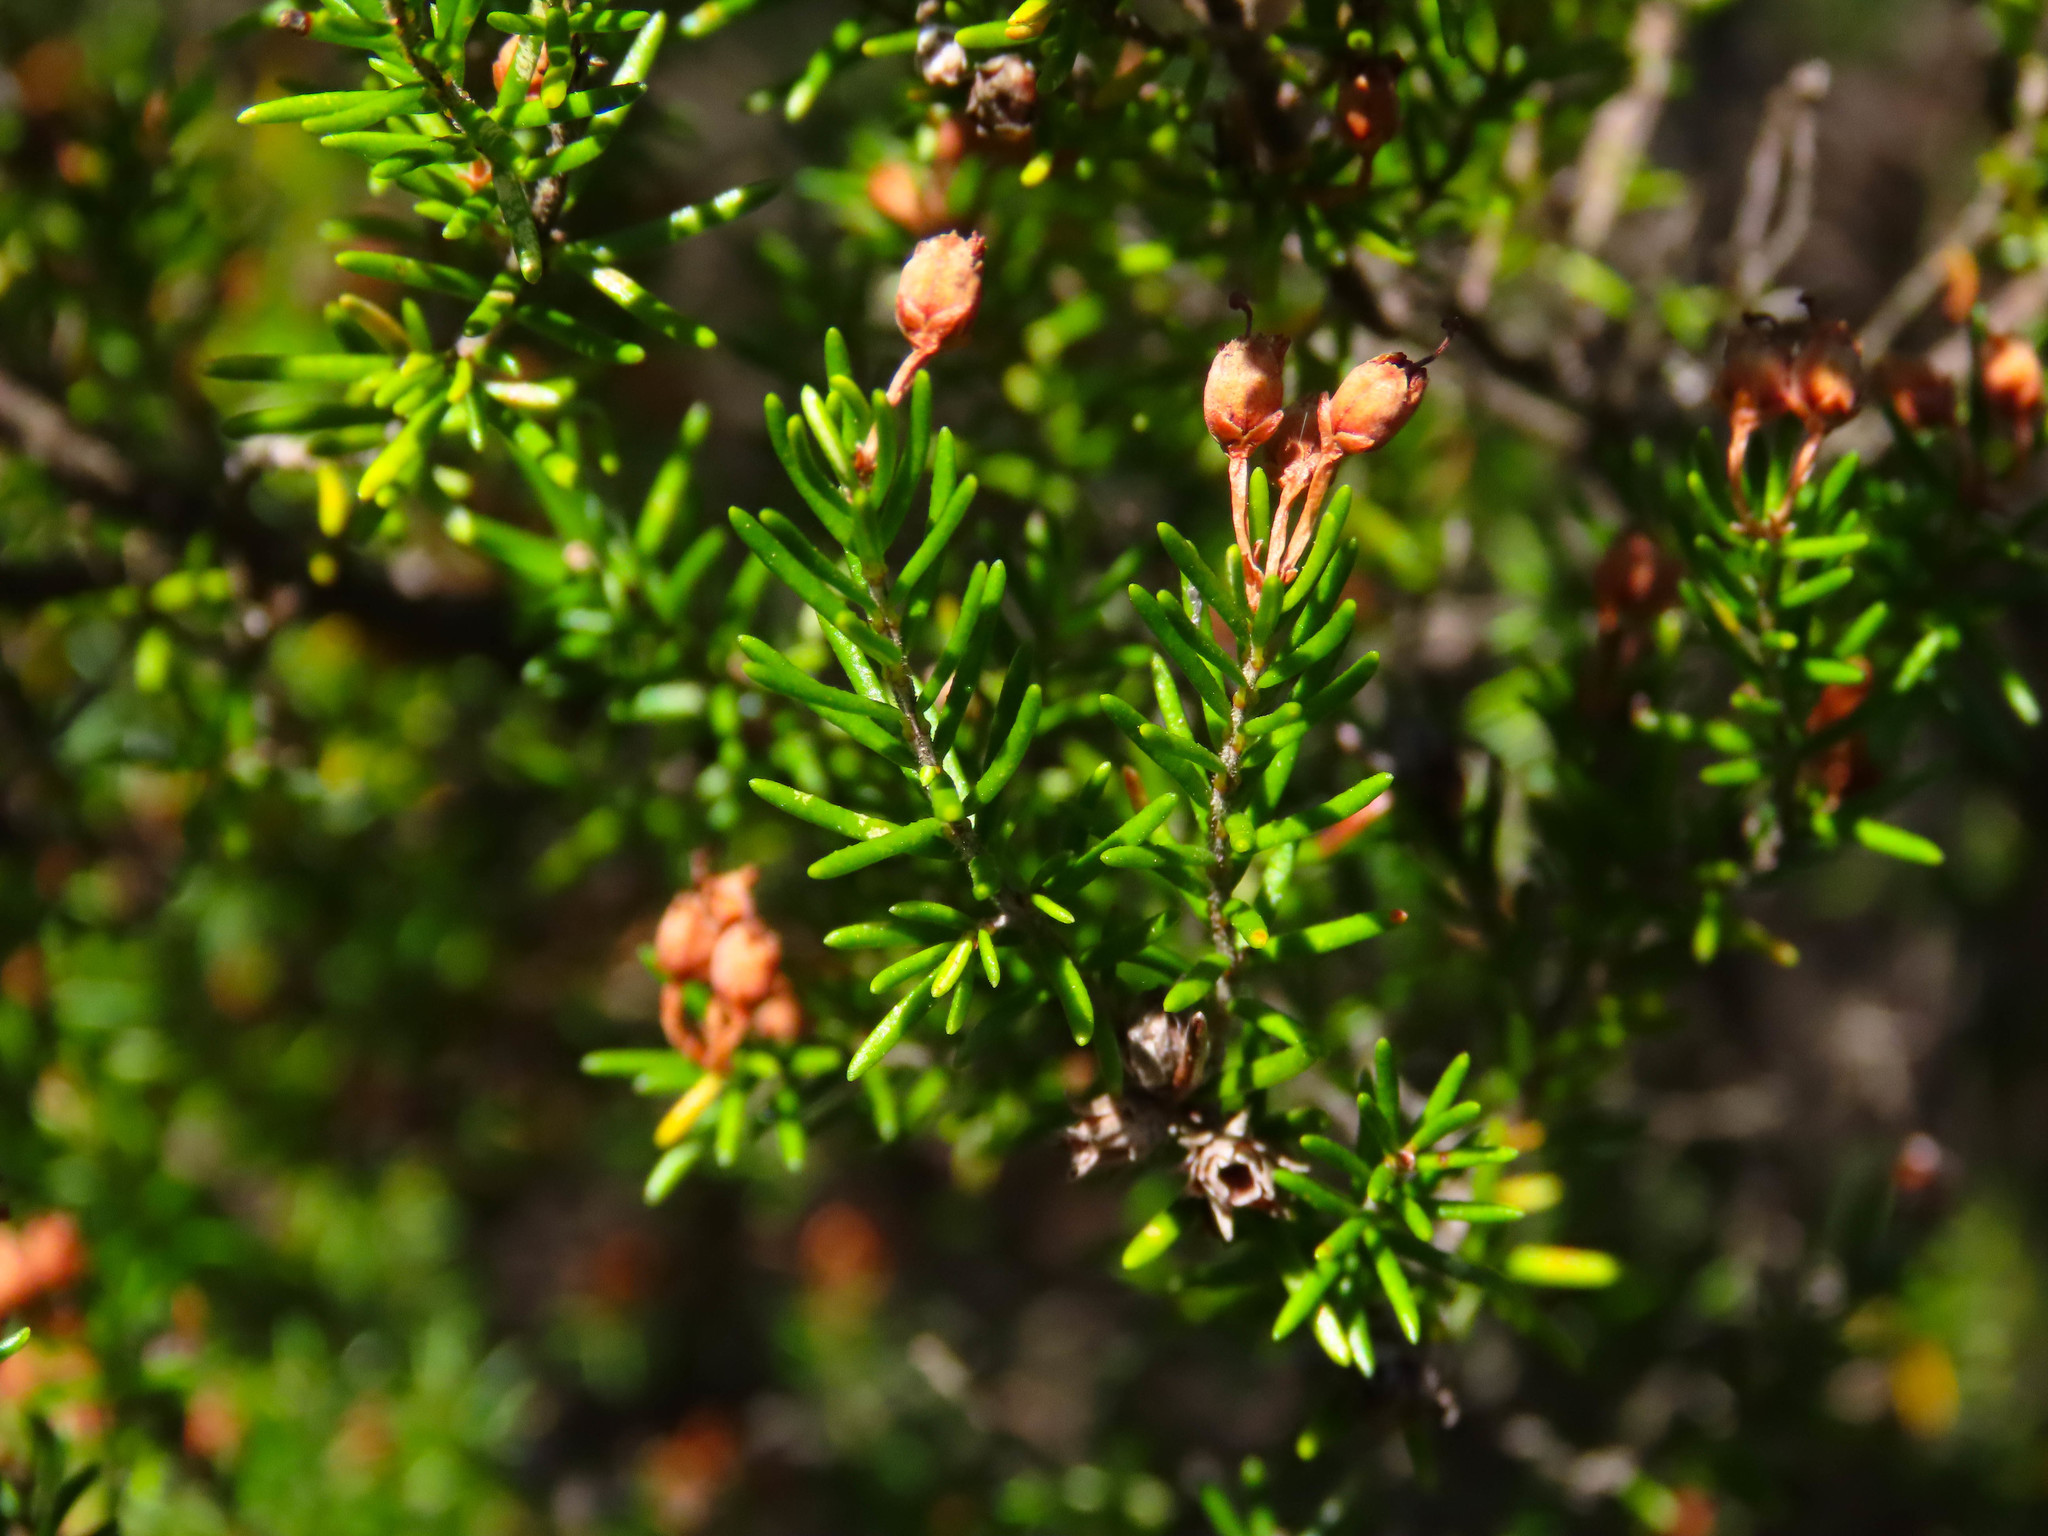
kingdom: Plantae
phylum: Tracheophyta
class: Magnoliopsida
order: Ericales
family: Ericaceae
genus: Erica
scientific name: Erica arborea
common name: Tree heath
